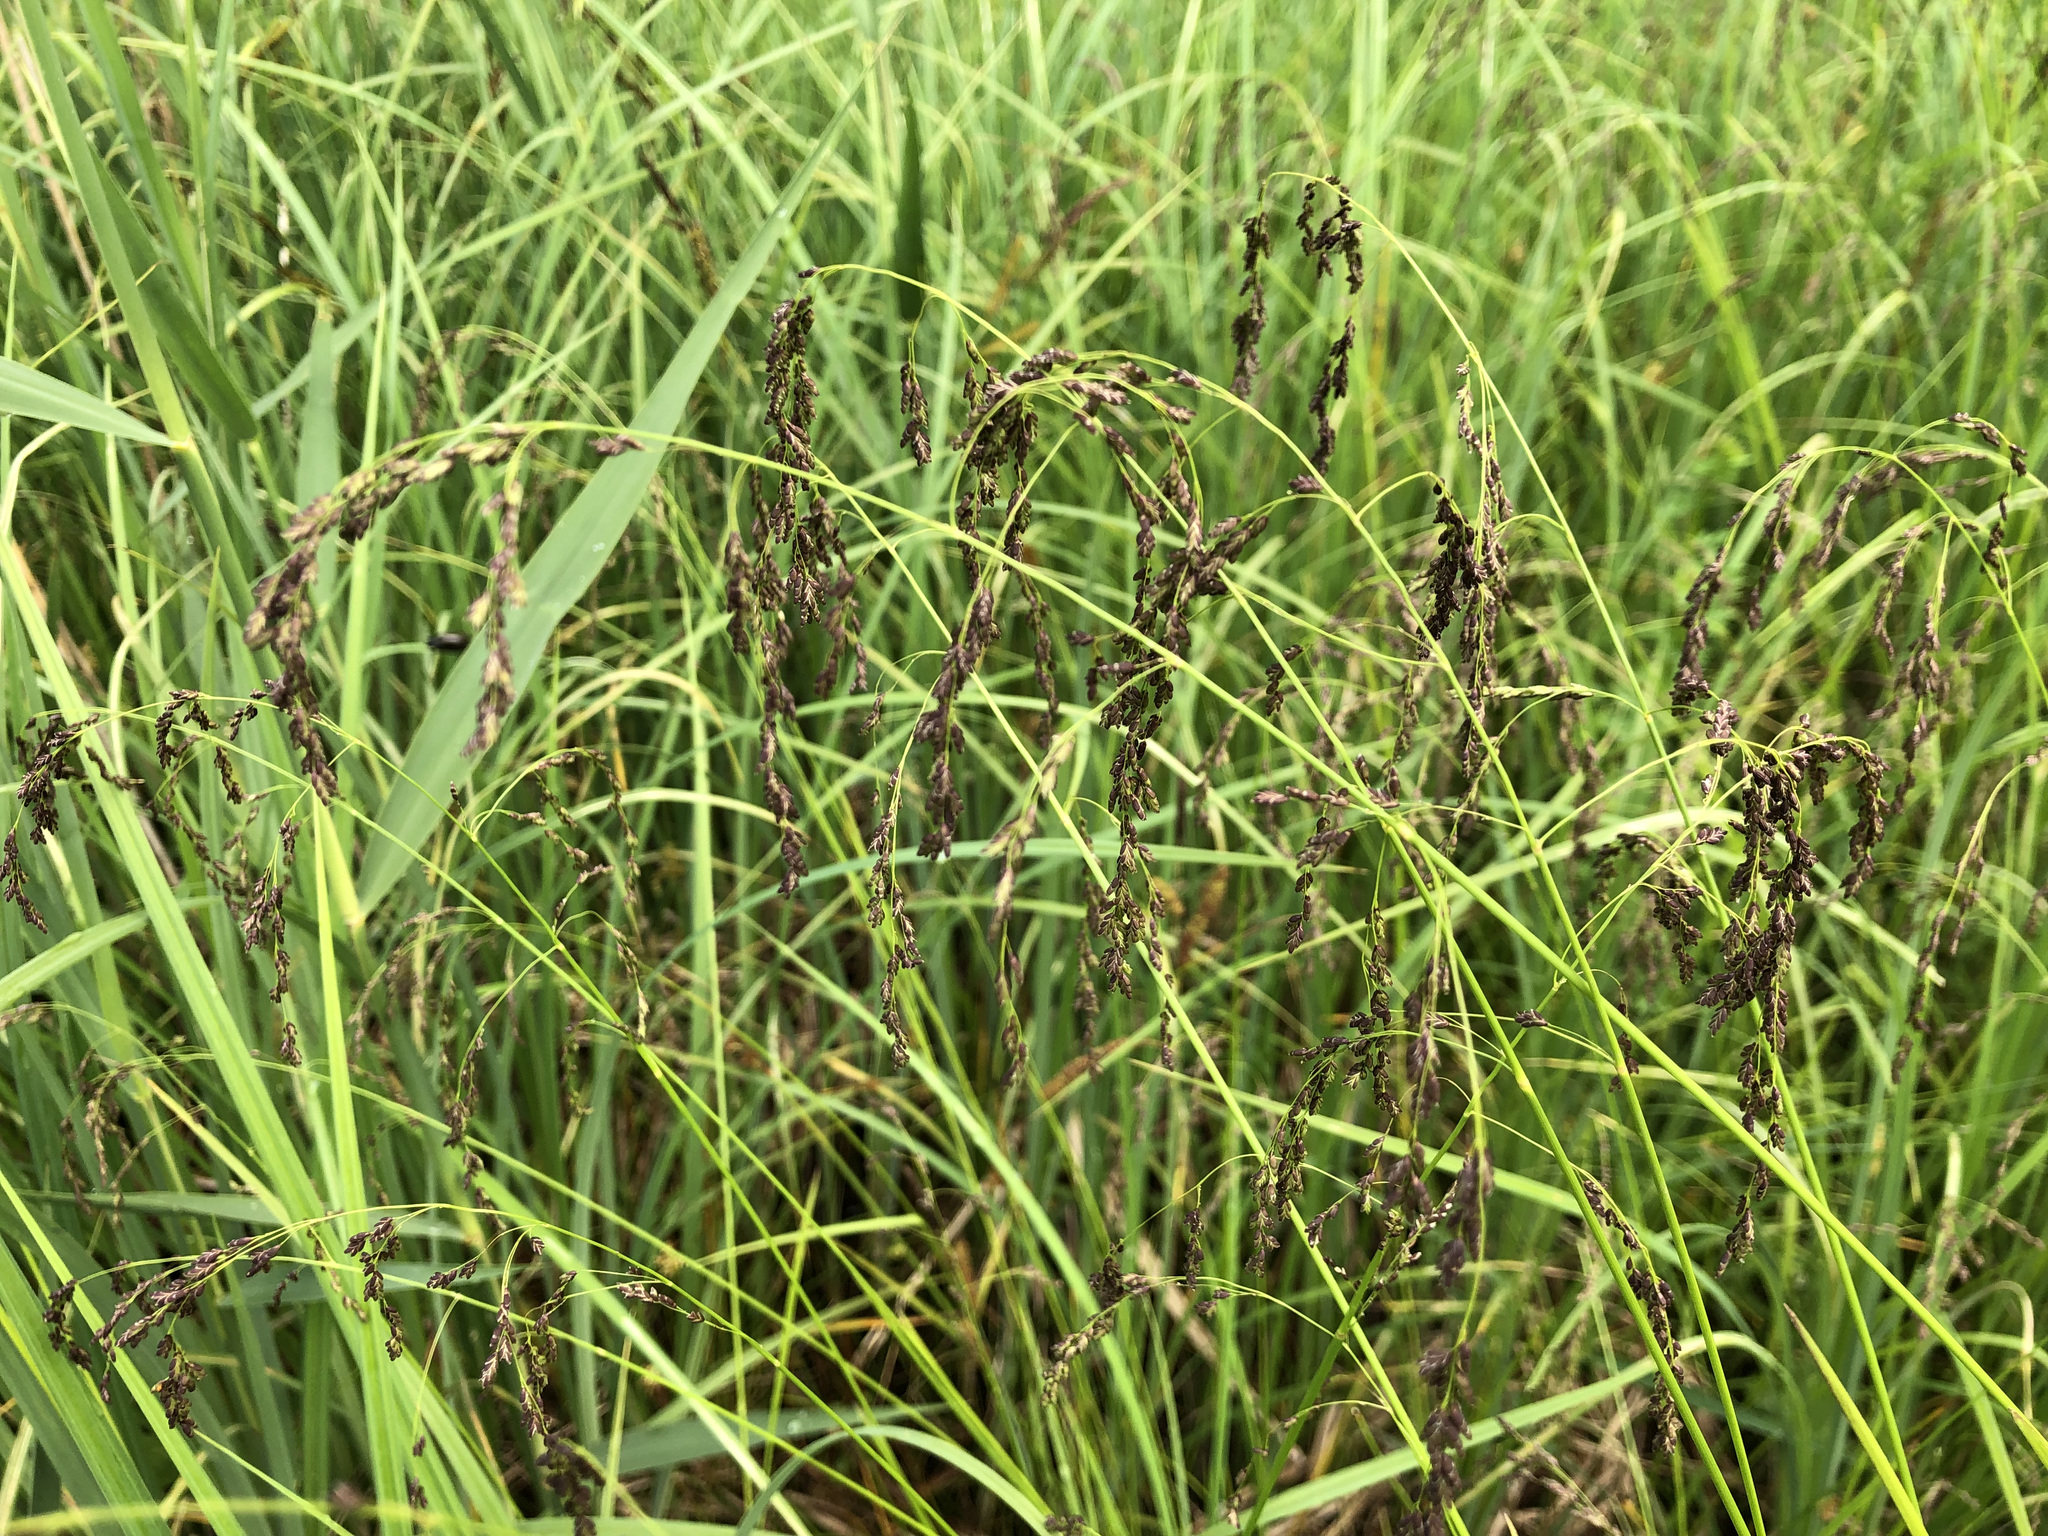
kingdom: Plantae
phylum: Tracheophyta
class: Liliopsida
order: Poales
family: Poaceae
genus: Glyceria
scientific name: Glyceria striata
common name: Fowl manna grass
